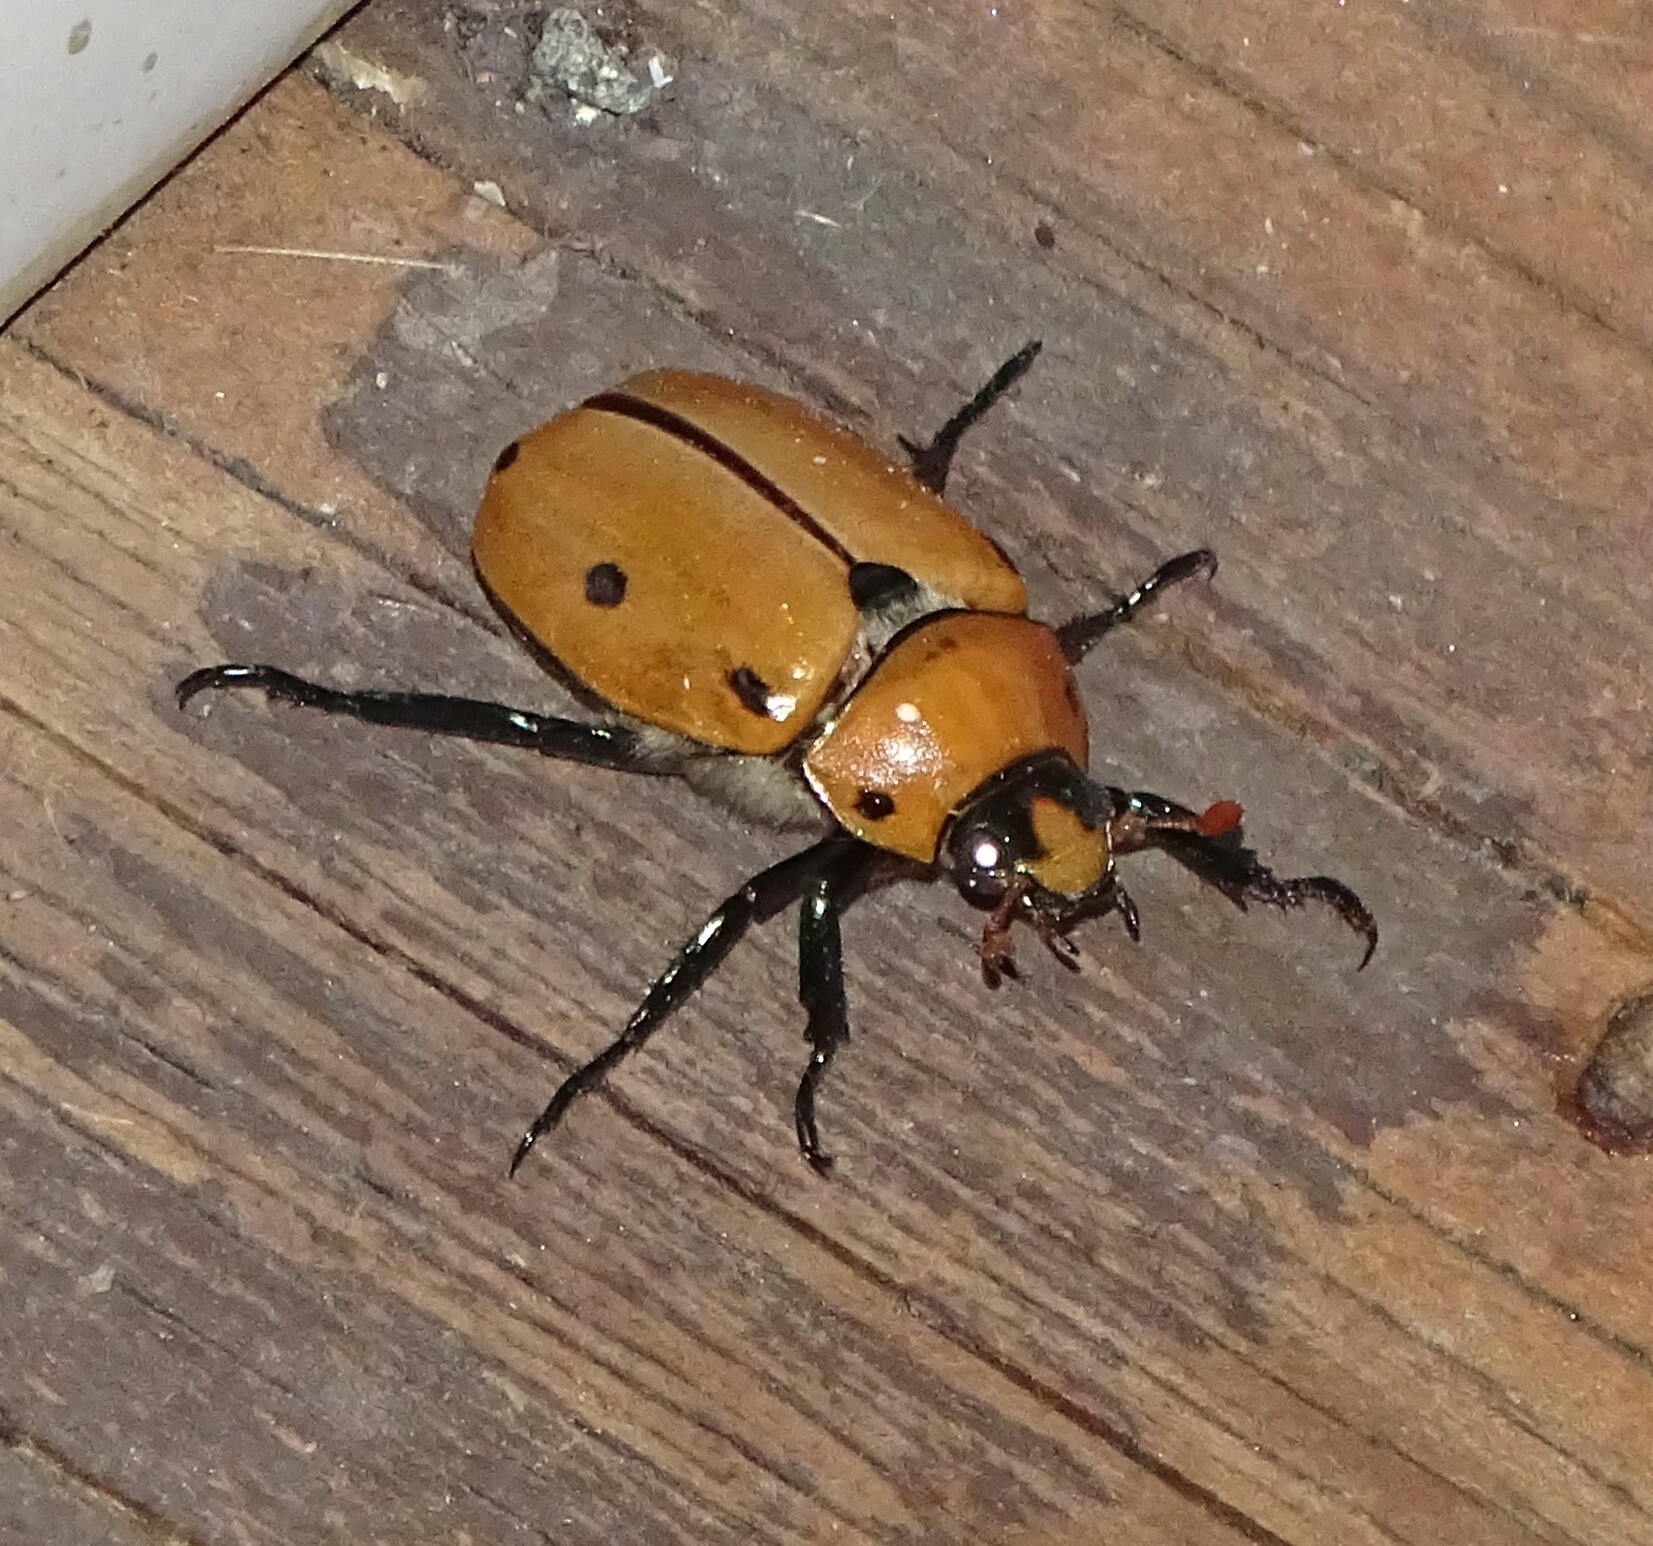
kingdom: Animalia
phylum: Arthropoda
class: Insecta
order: Coleoptera
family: Scarabaeidae
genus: Pelidnota
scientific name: Pelidnota punctata
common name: Grapevine beetle
